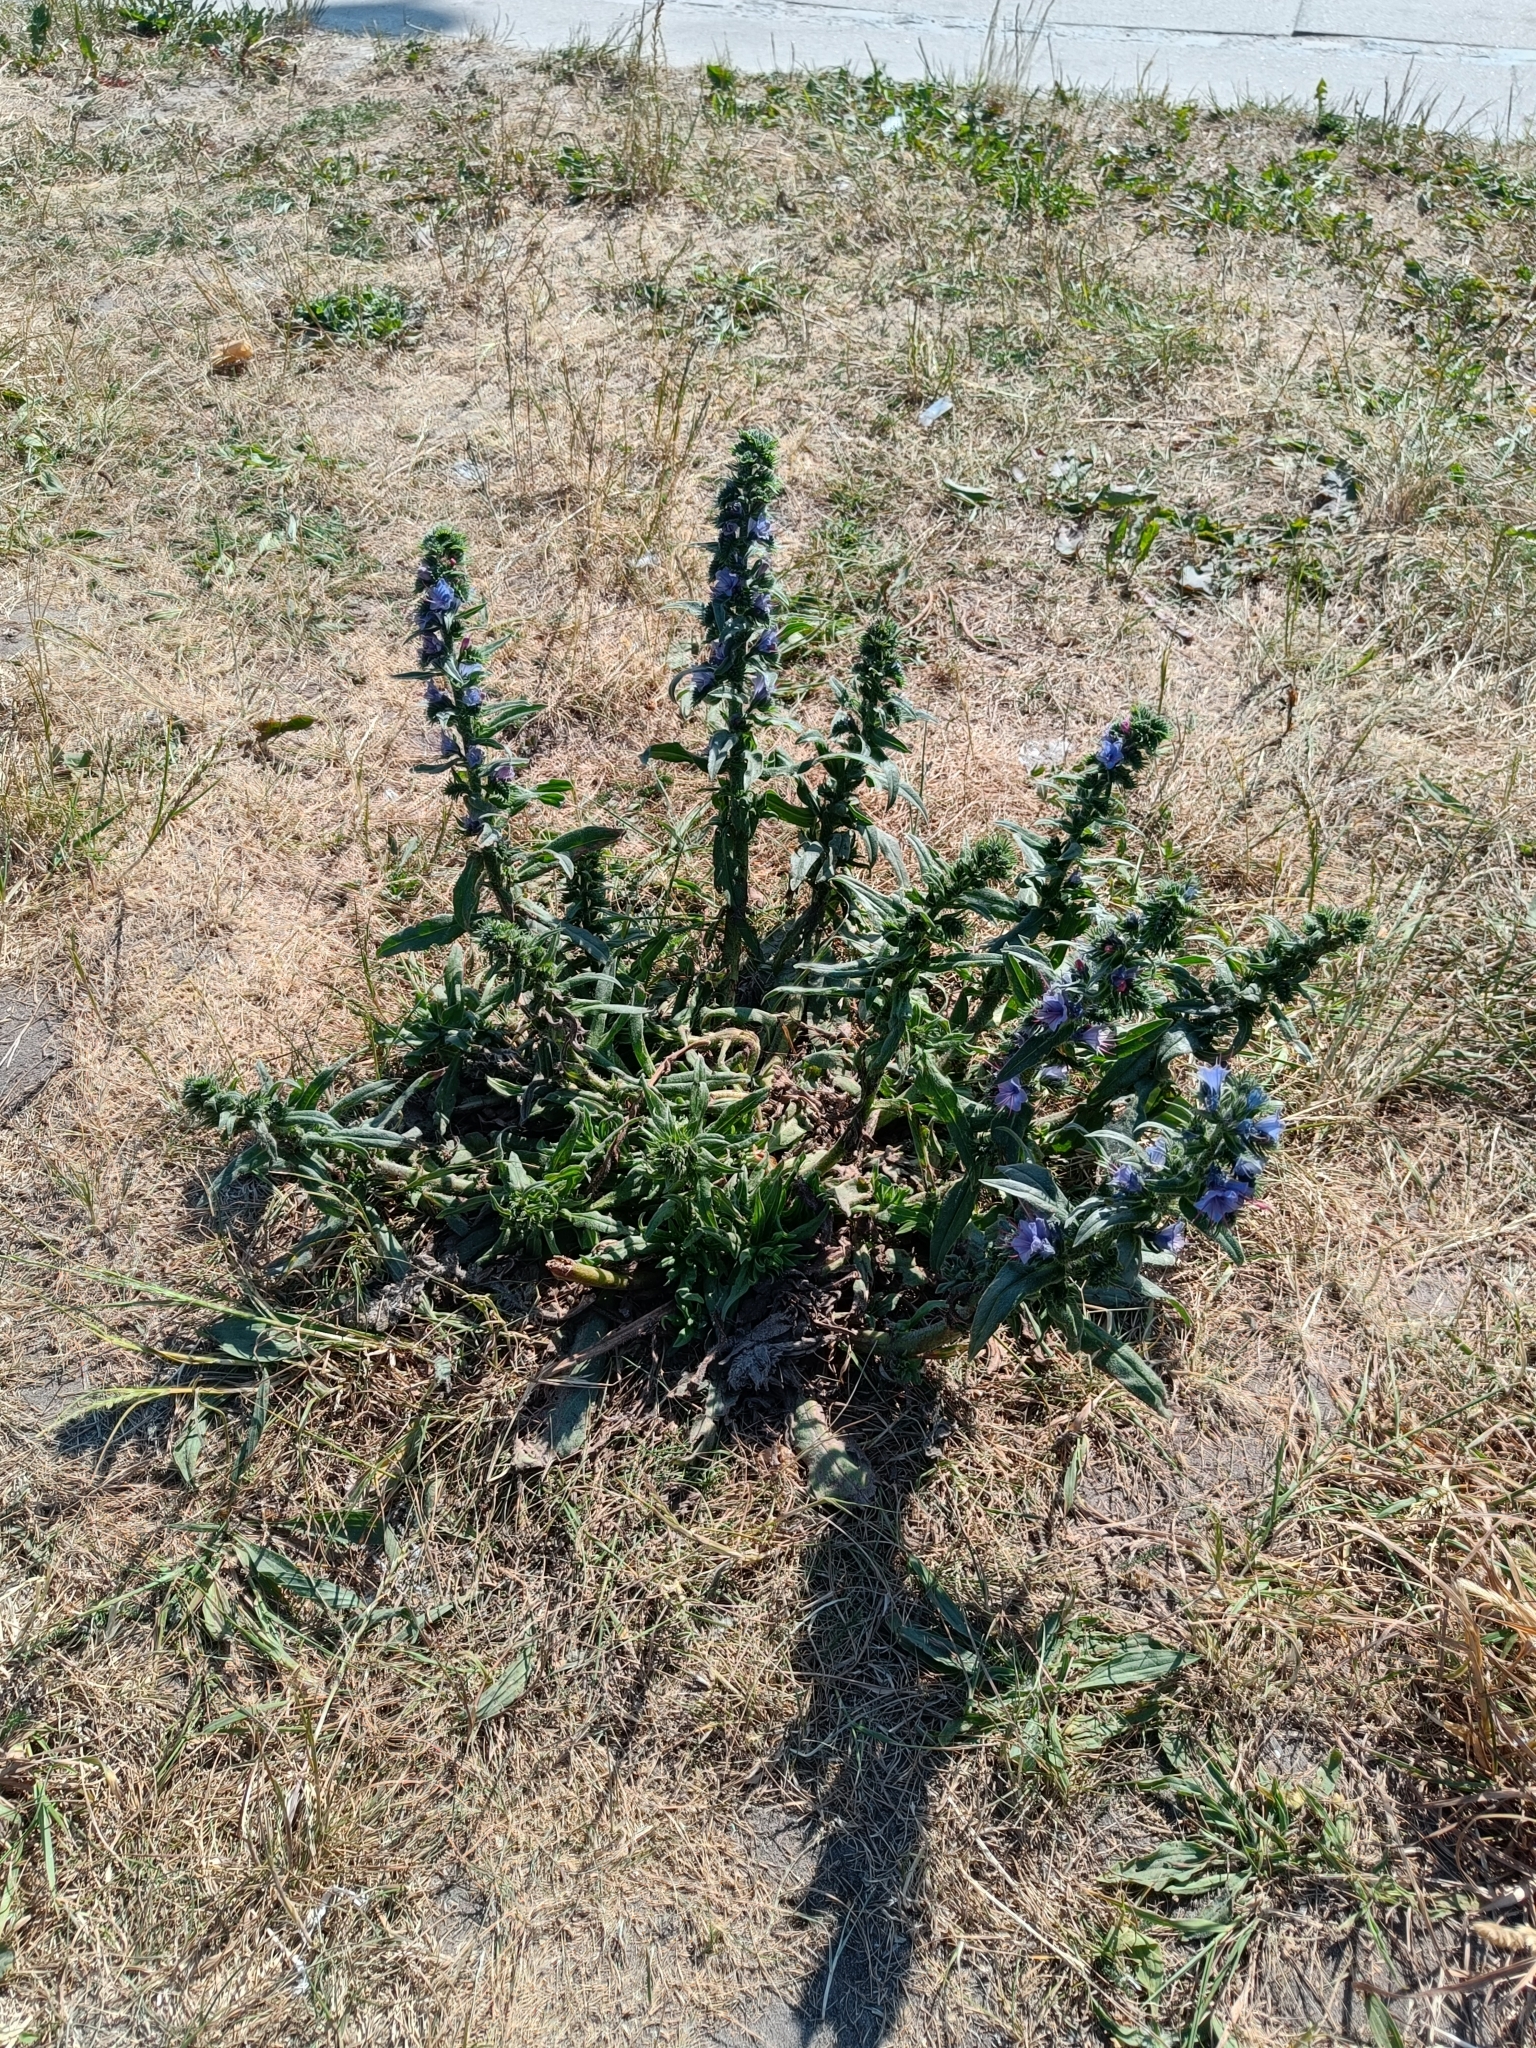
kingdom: Plantae
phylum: Tracheophyta
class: Magnoliopsida
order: Boraginales
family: Boraginaceae
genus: Echium
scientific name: Echium vulgare
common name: Common viper's bugloss
